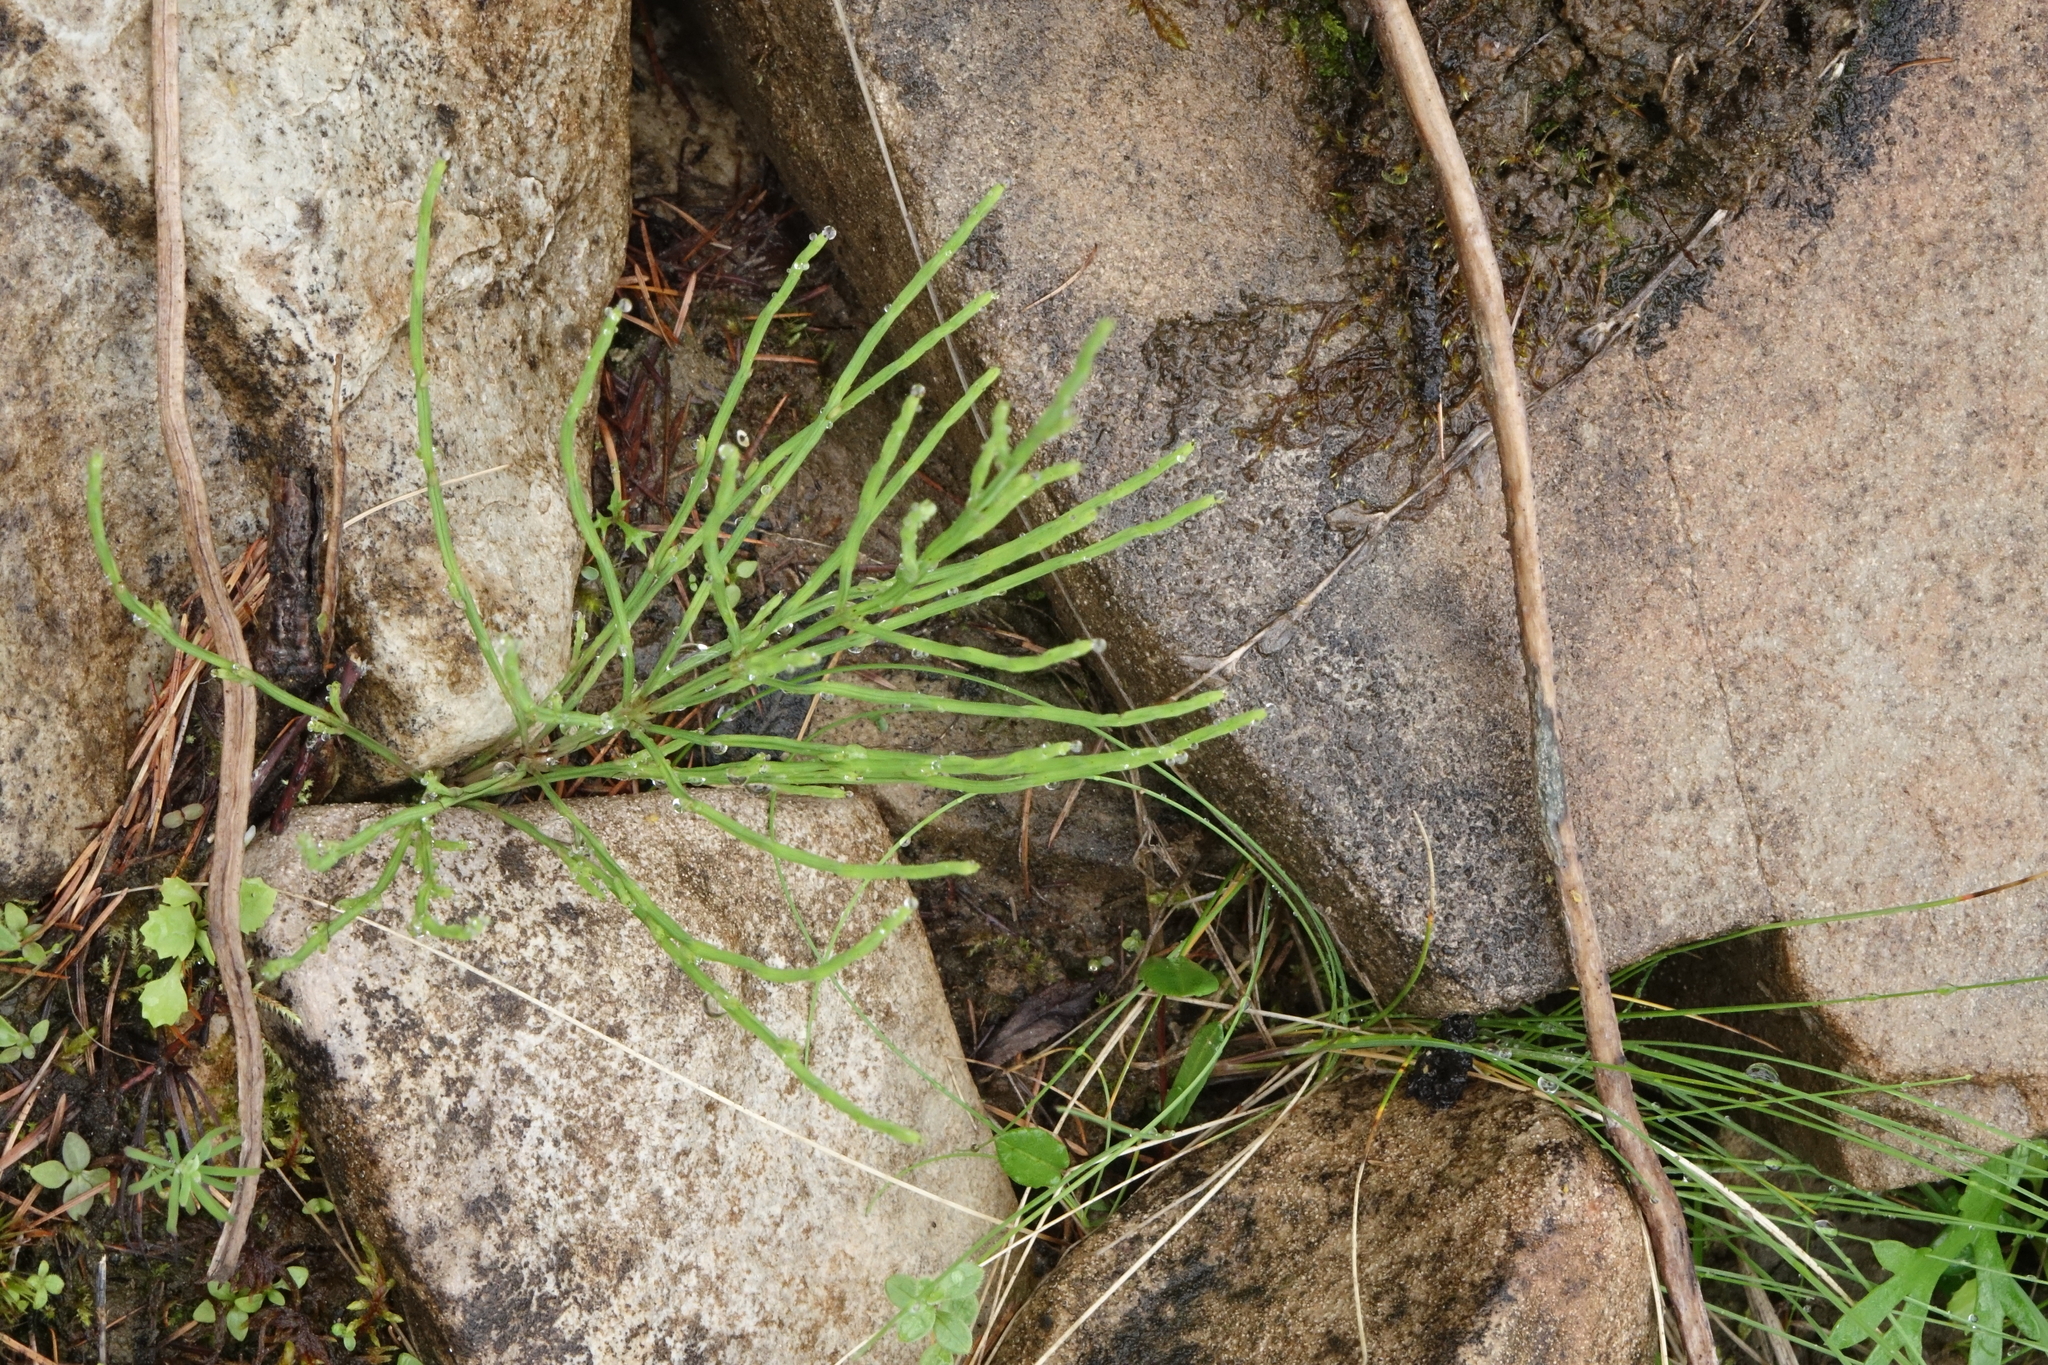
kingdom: Plantae
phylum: Tracheophyta
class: Polypodiopsida
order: Equisetales
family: Equisetaceae
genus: Equisetum
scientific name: Equisetum arvense
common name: Field horsetail
